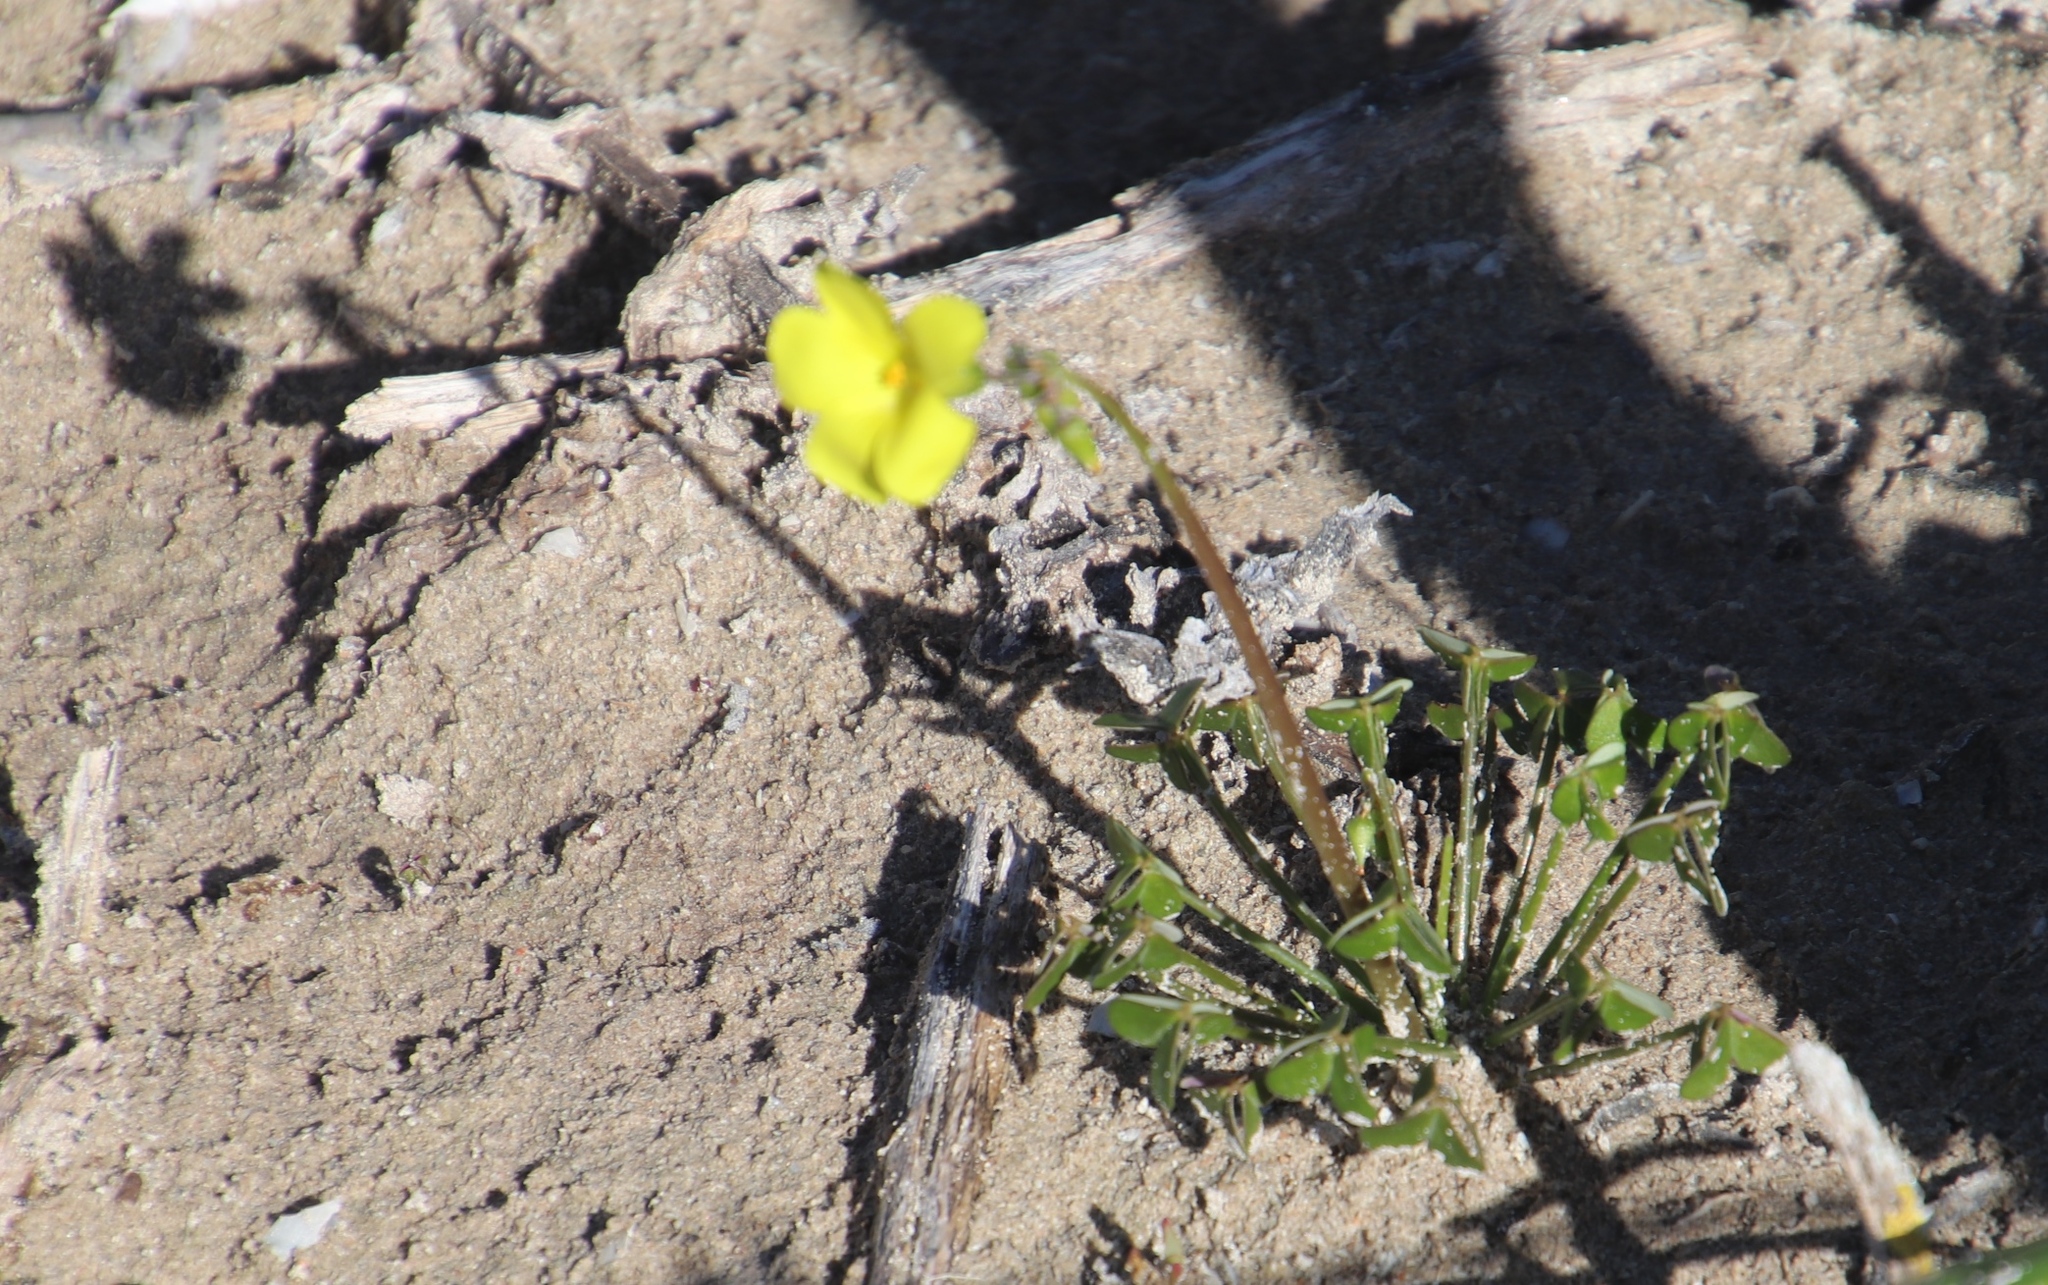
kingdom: Plantae
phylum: Tracheophyta
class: Magnoliopsida
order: Oxalidales
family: Oxalidaceae
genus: Oxalis
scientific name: Oxalis pes-caprae
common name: Bermuda-buttercup
